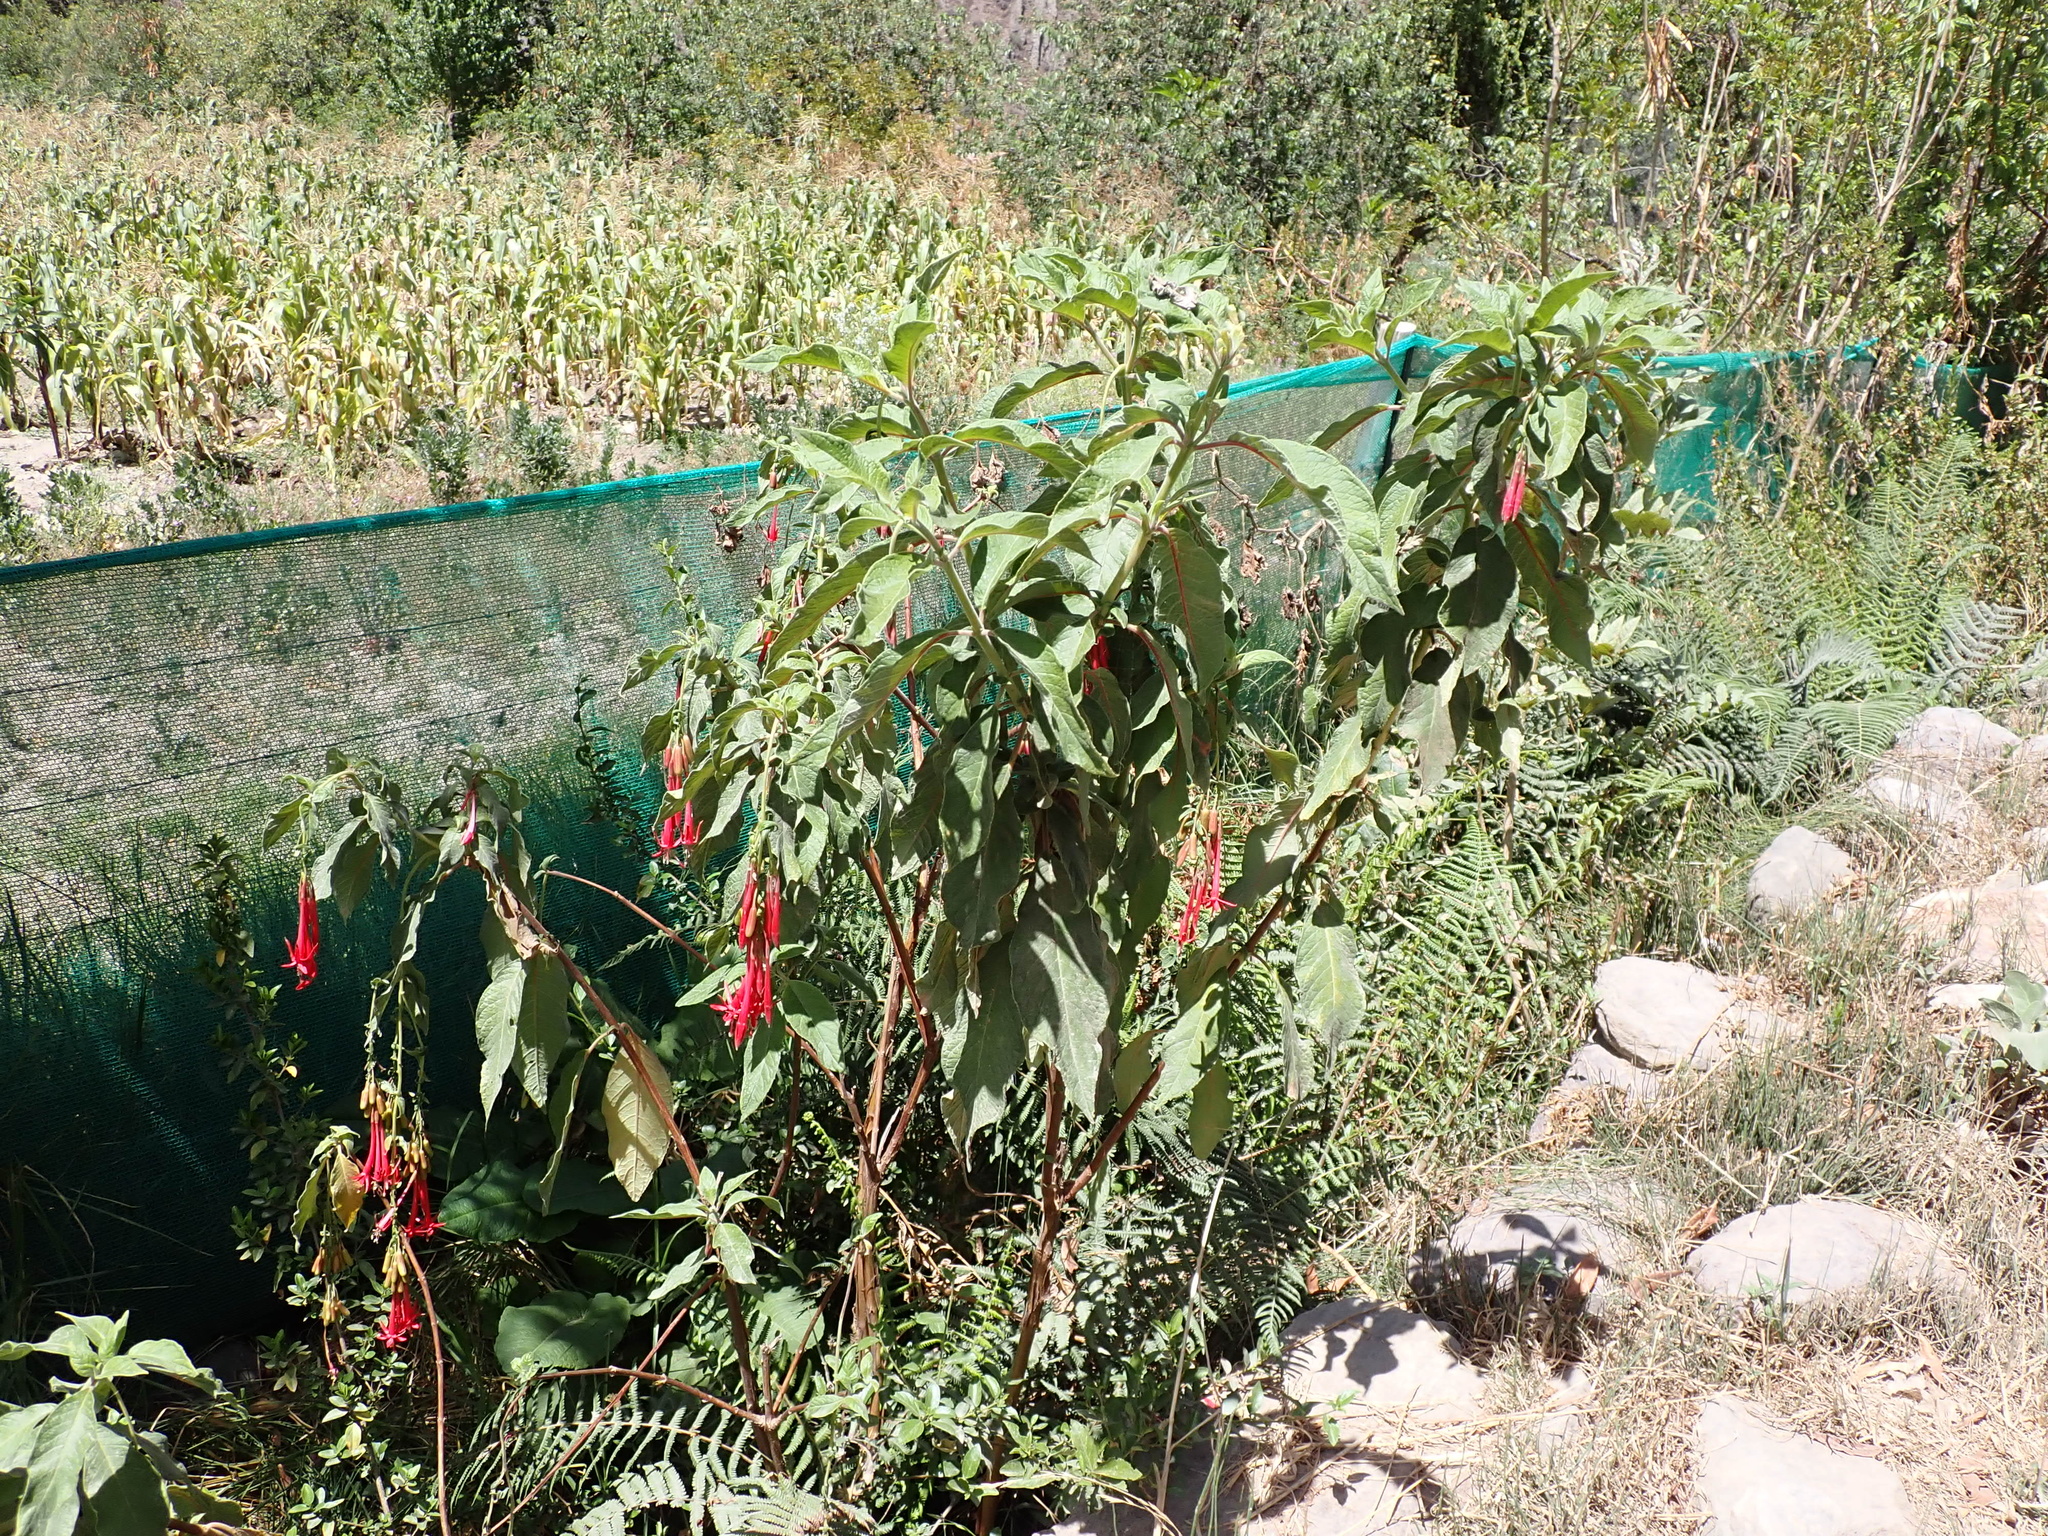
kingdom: Plantae
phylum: Tracheophyta
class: Magnoliopsida
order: Myrtales
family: Onagraceae
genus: Fuchsia
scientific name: Fuchsia boliviana
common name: Bolivian fuchsia
